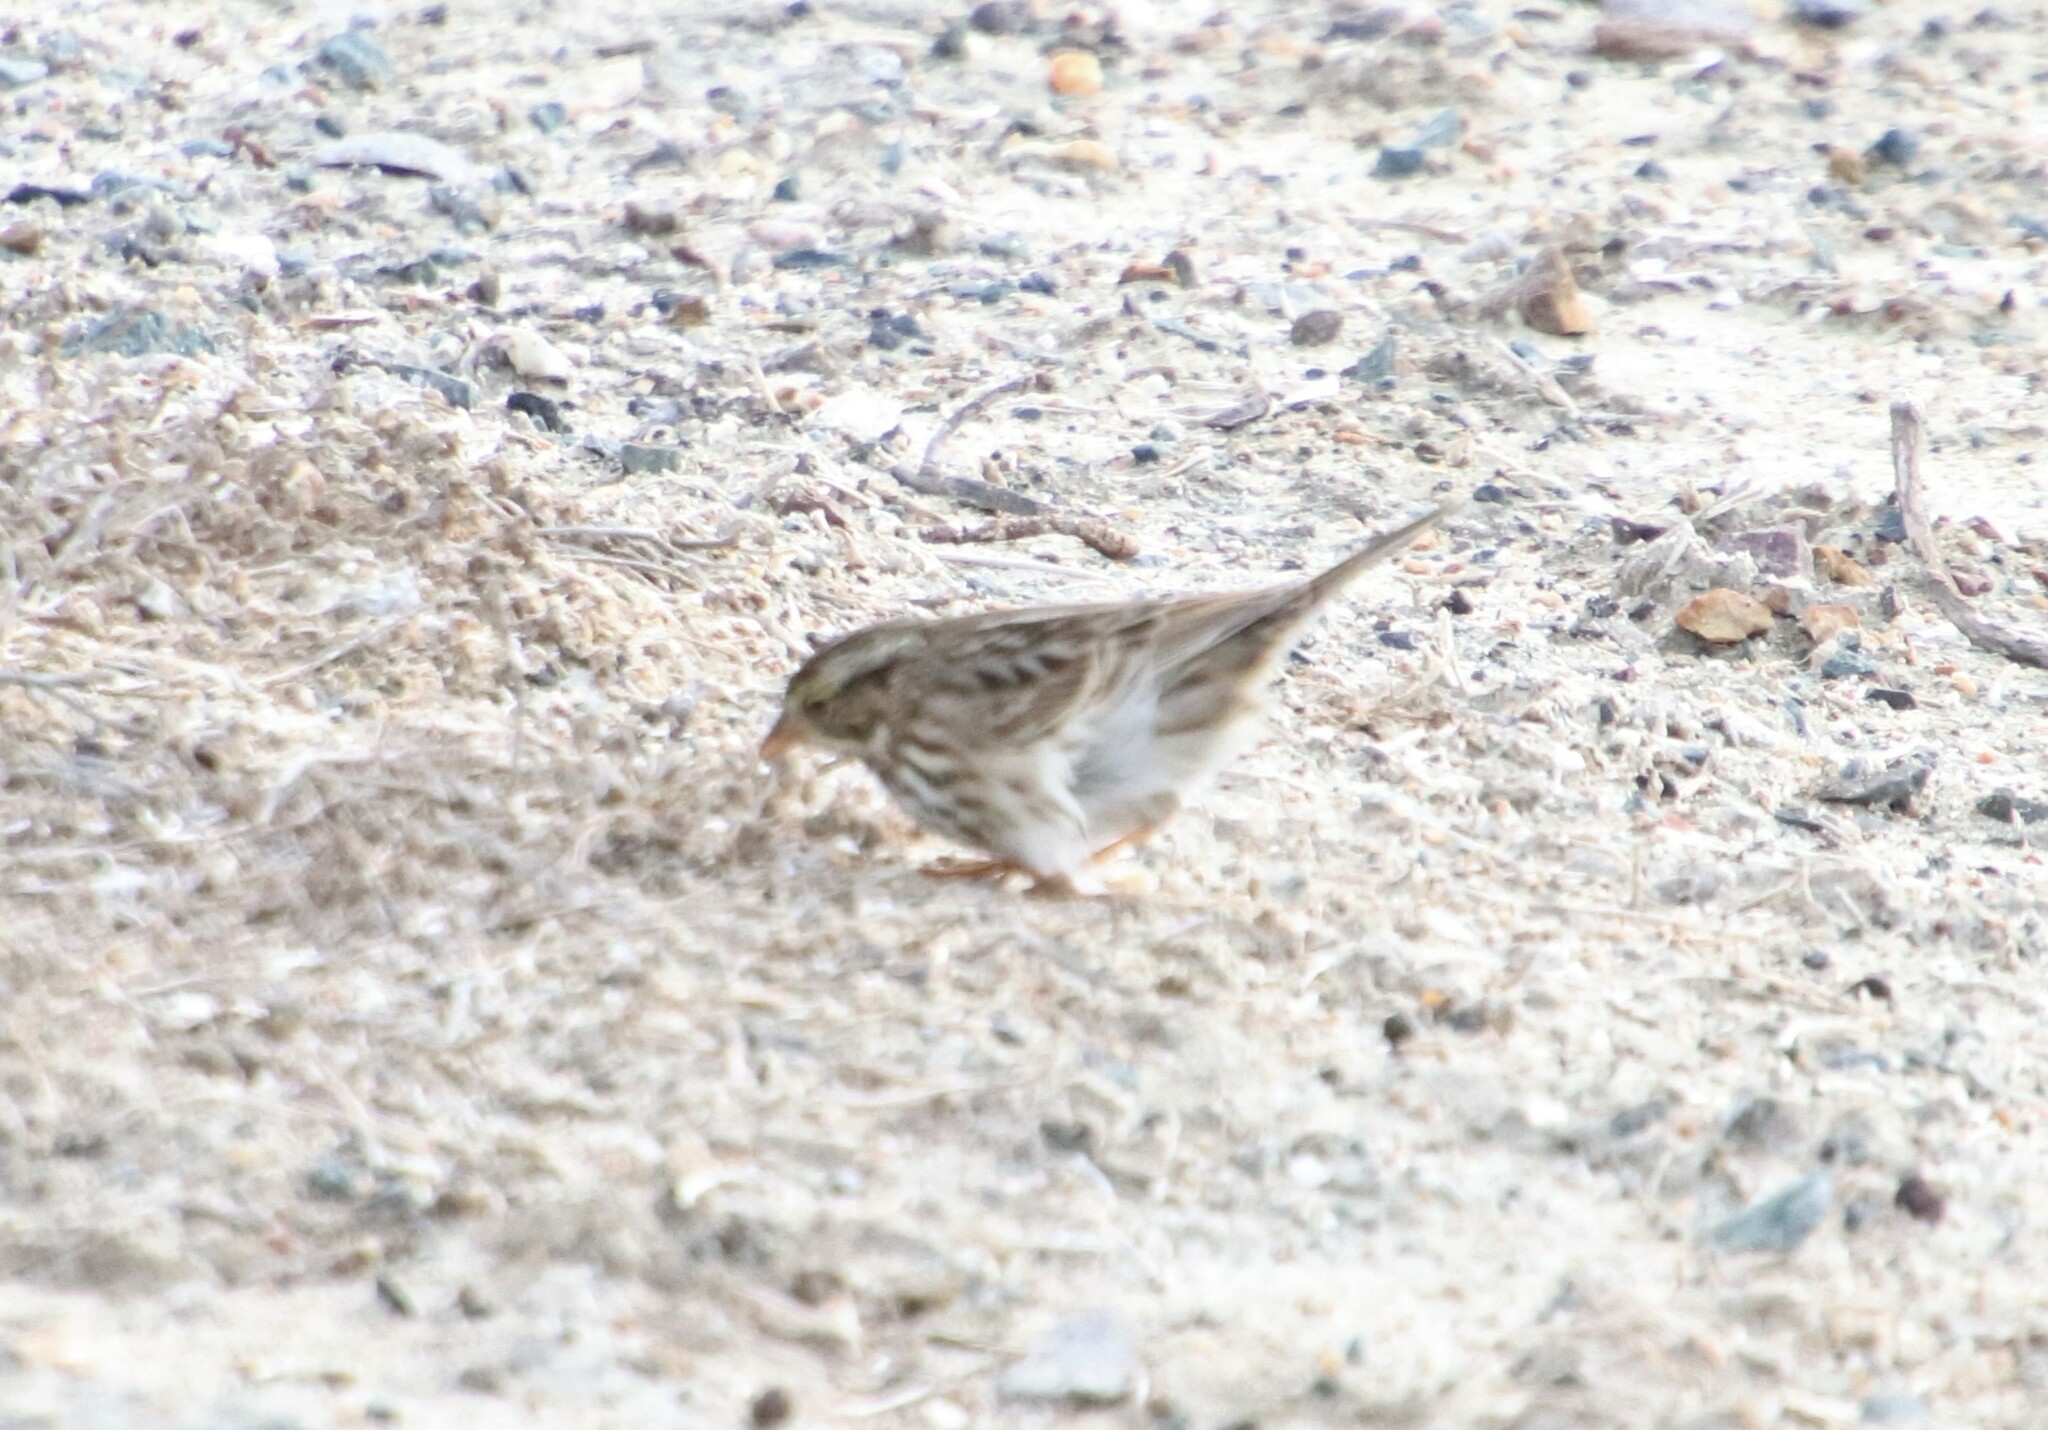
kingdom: Animalia
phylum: Chordata
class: Aves
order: Passeriformes
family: Passerellidae
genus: Passerculus
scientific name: Passerculus sandwichensis
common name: Savannah sparrow
